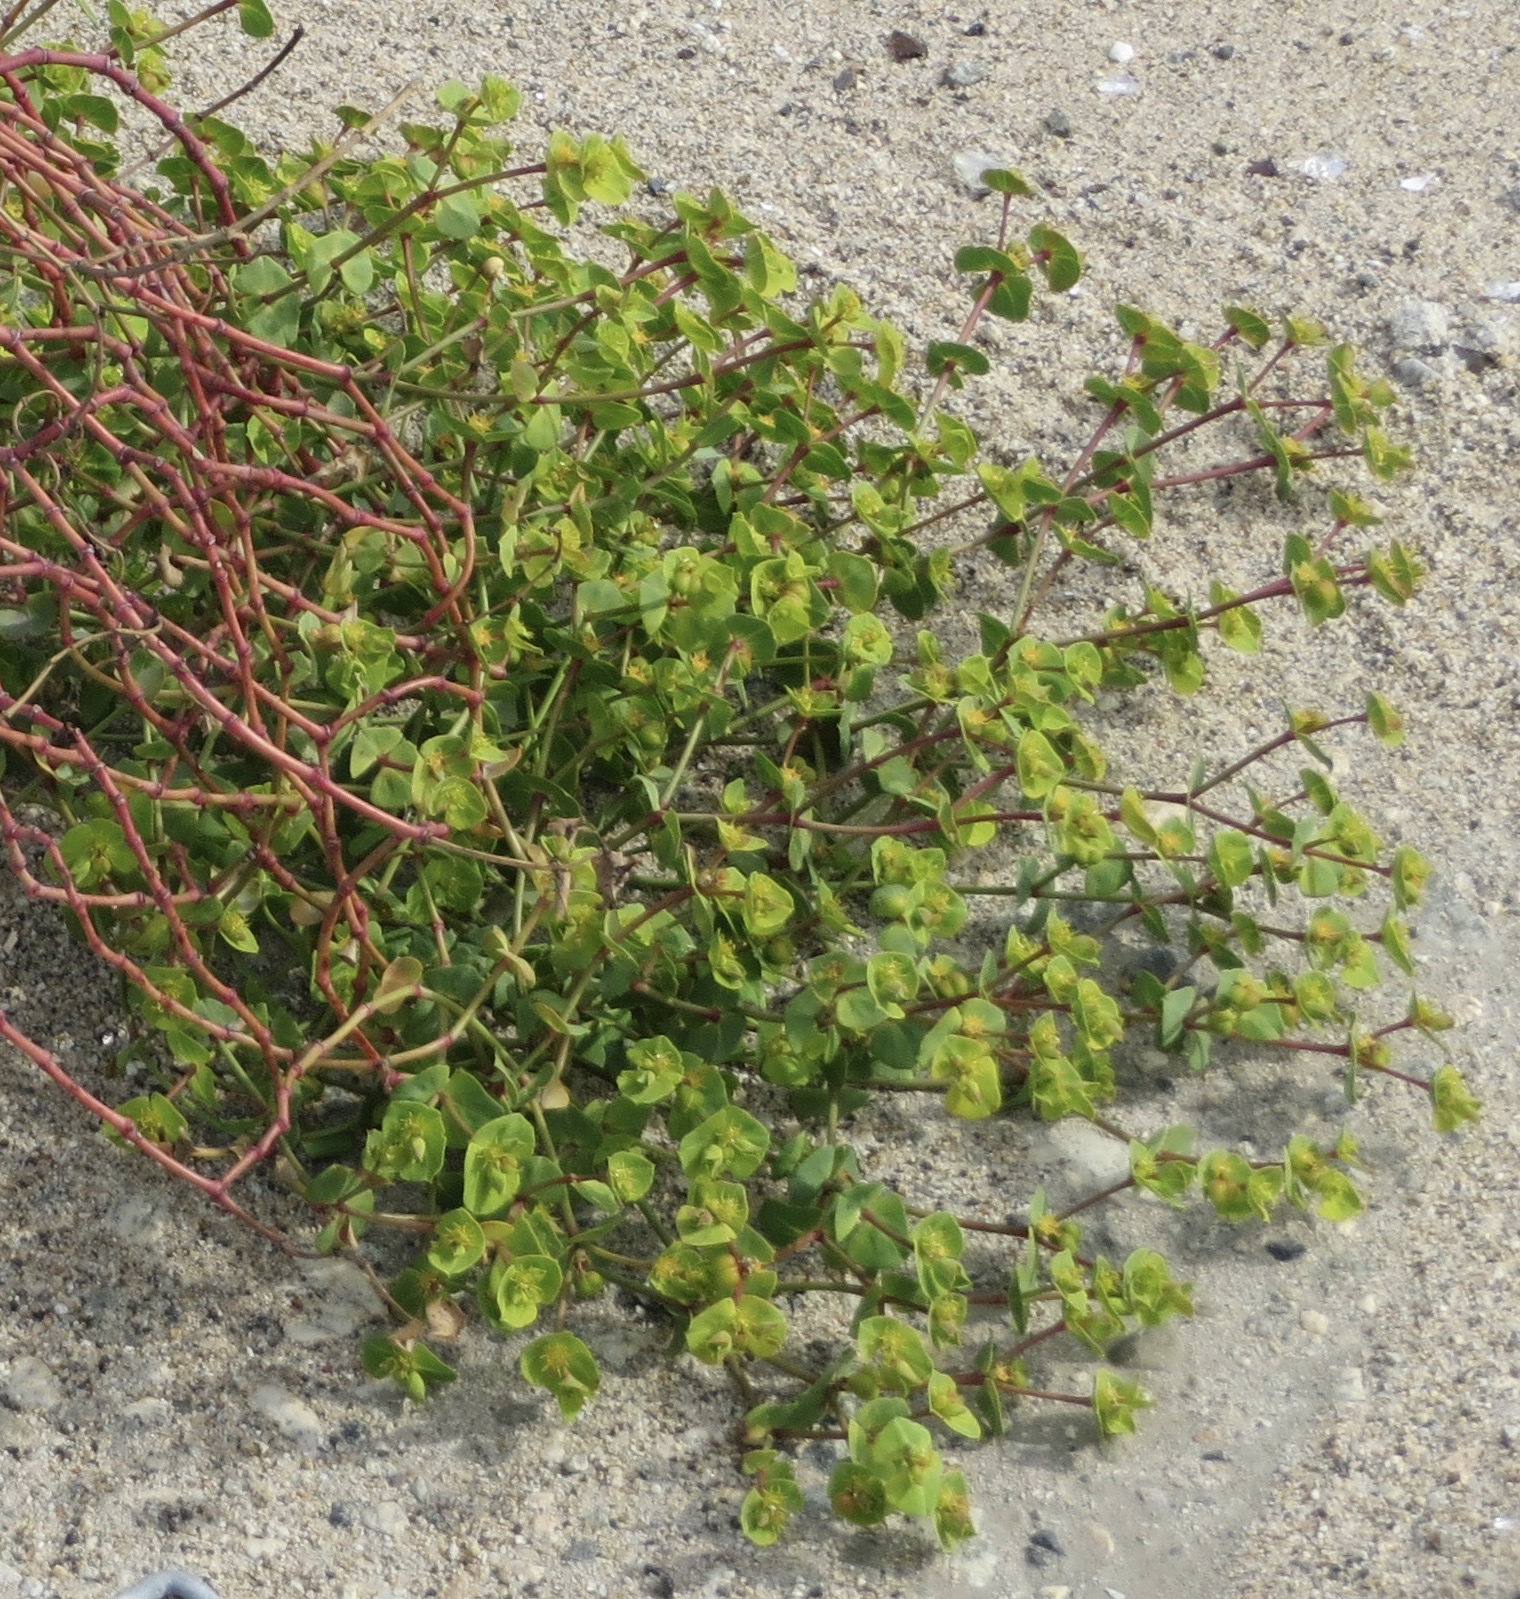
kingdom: Plantae
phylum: Tracheophyta
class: Magnoliopsida
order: Malpighiales
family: Euphorbiaceae
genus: Euphorbia
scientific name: Euphorbia terracina
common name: Geraldton carnation weed
